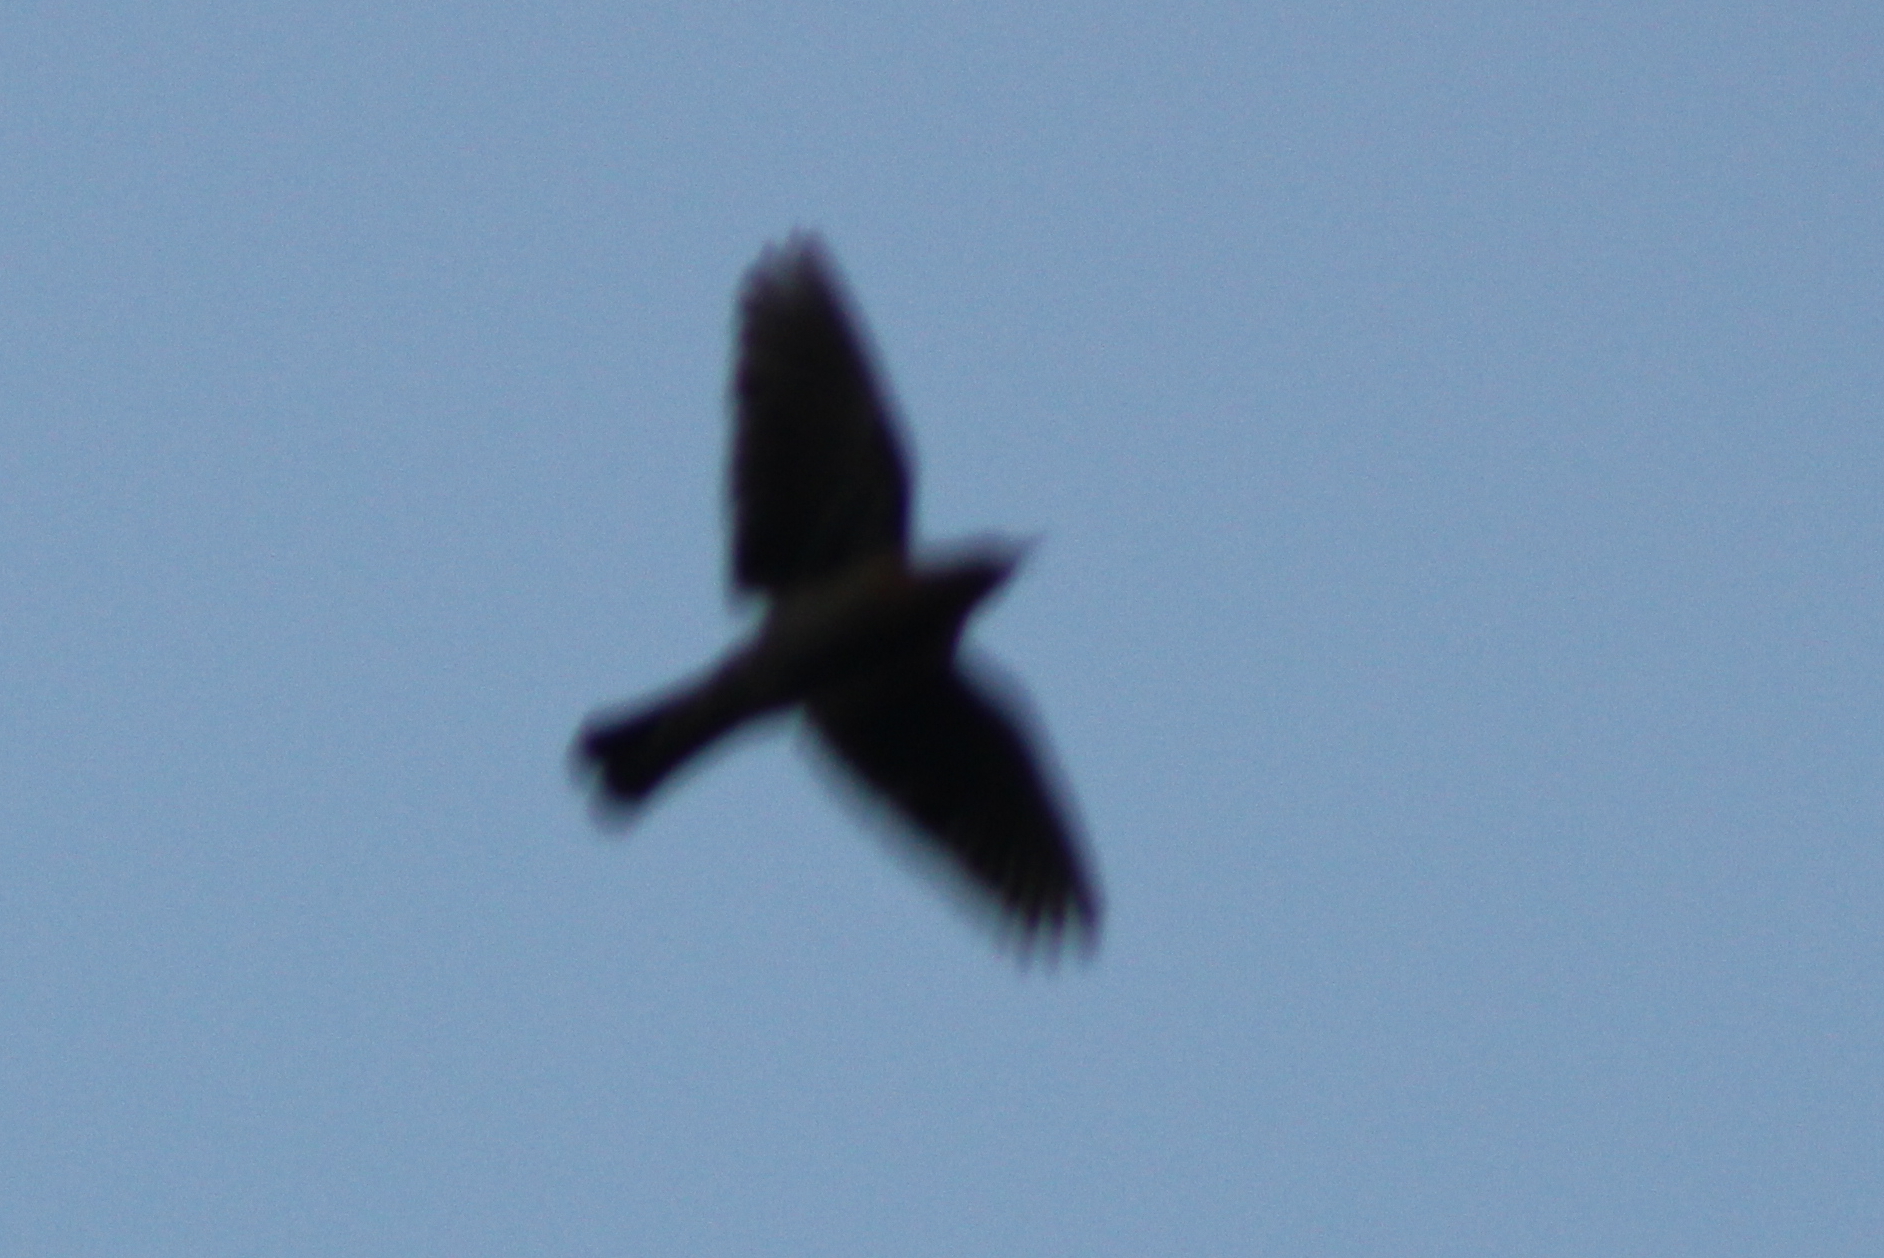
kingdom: Animalia
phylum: Chordata
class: Aves
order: Passeriformes
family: Icteridae
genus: Euphagus
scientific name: Euphagus carolinus
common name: Rusty blackbird
